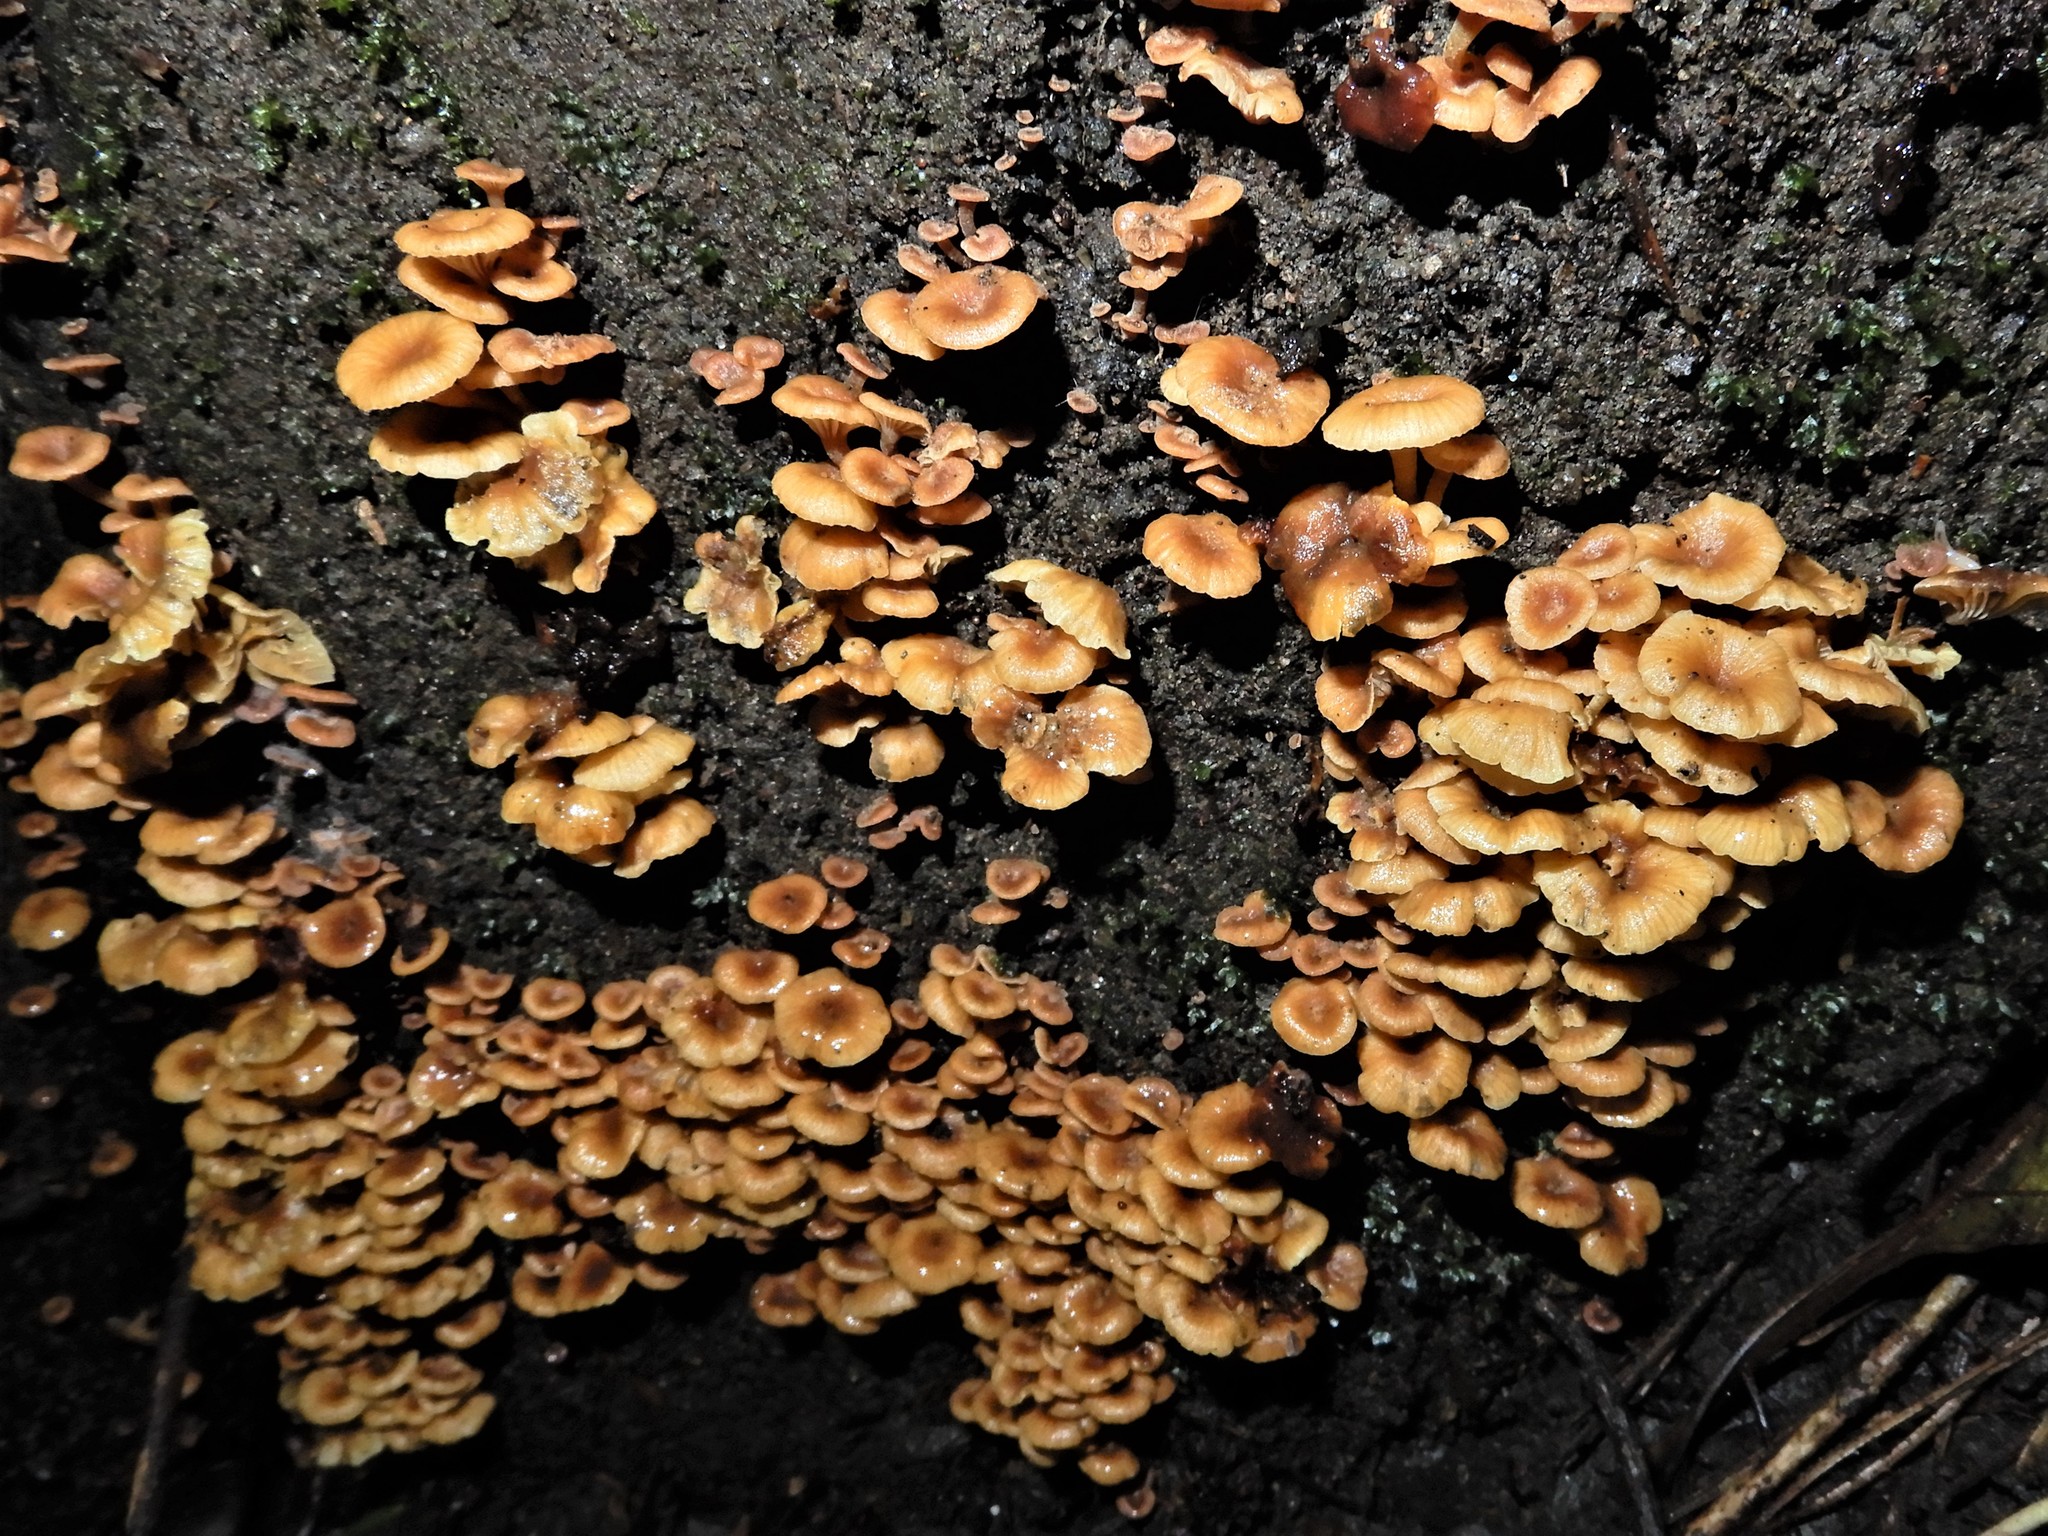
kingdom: Fungi
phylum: Basidiomycota
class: Agaricomycetes
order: Agaricales
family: Mycenaceae
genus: Xeromphalina
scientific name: Xeromphalina podocarpi
